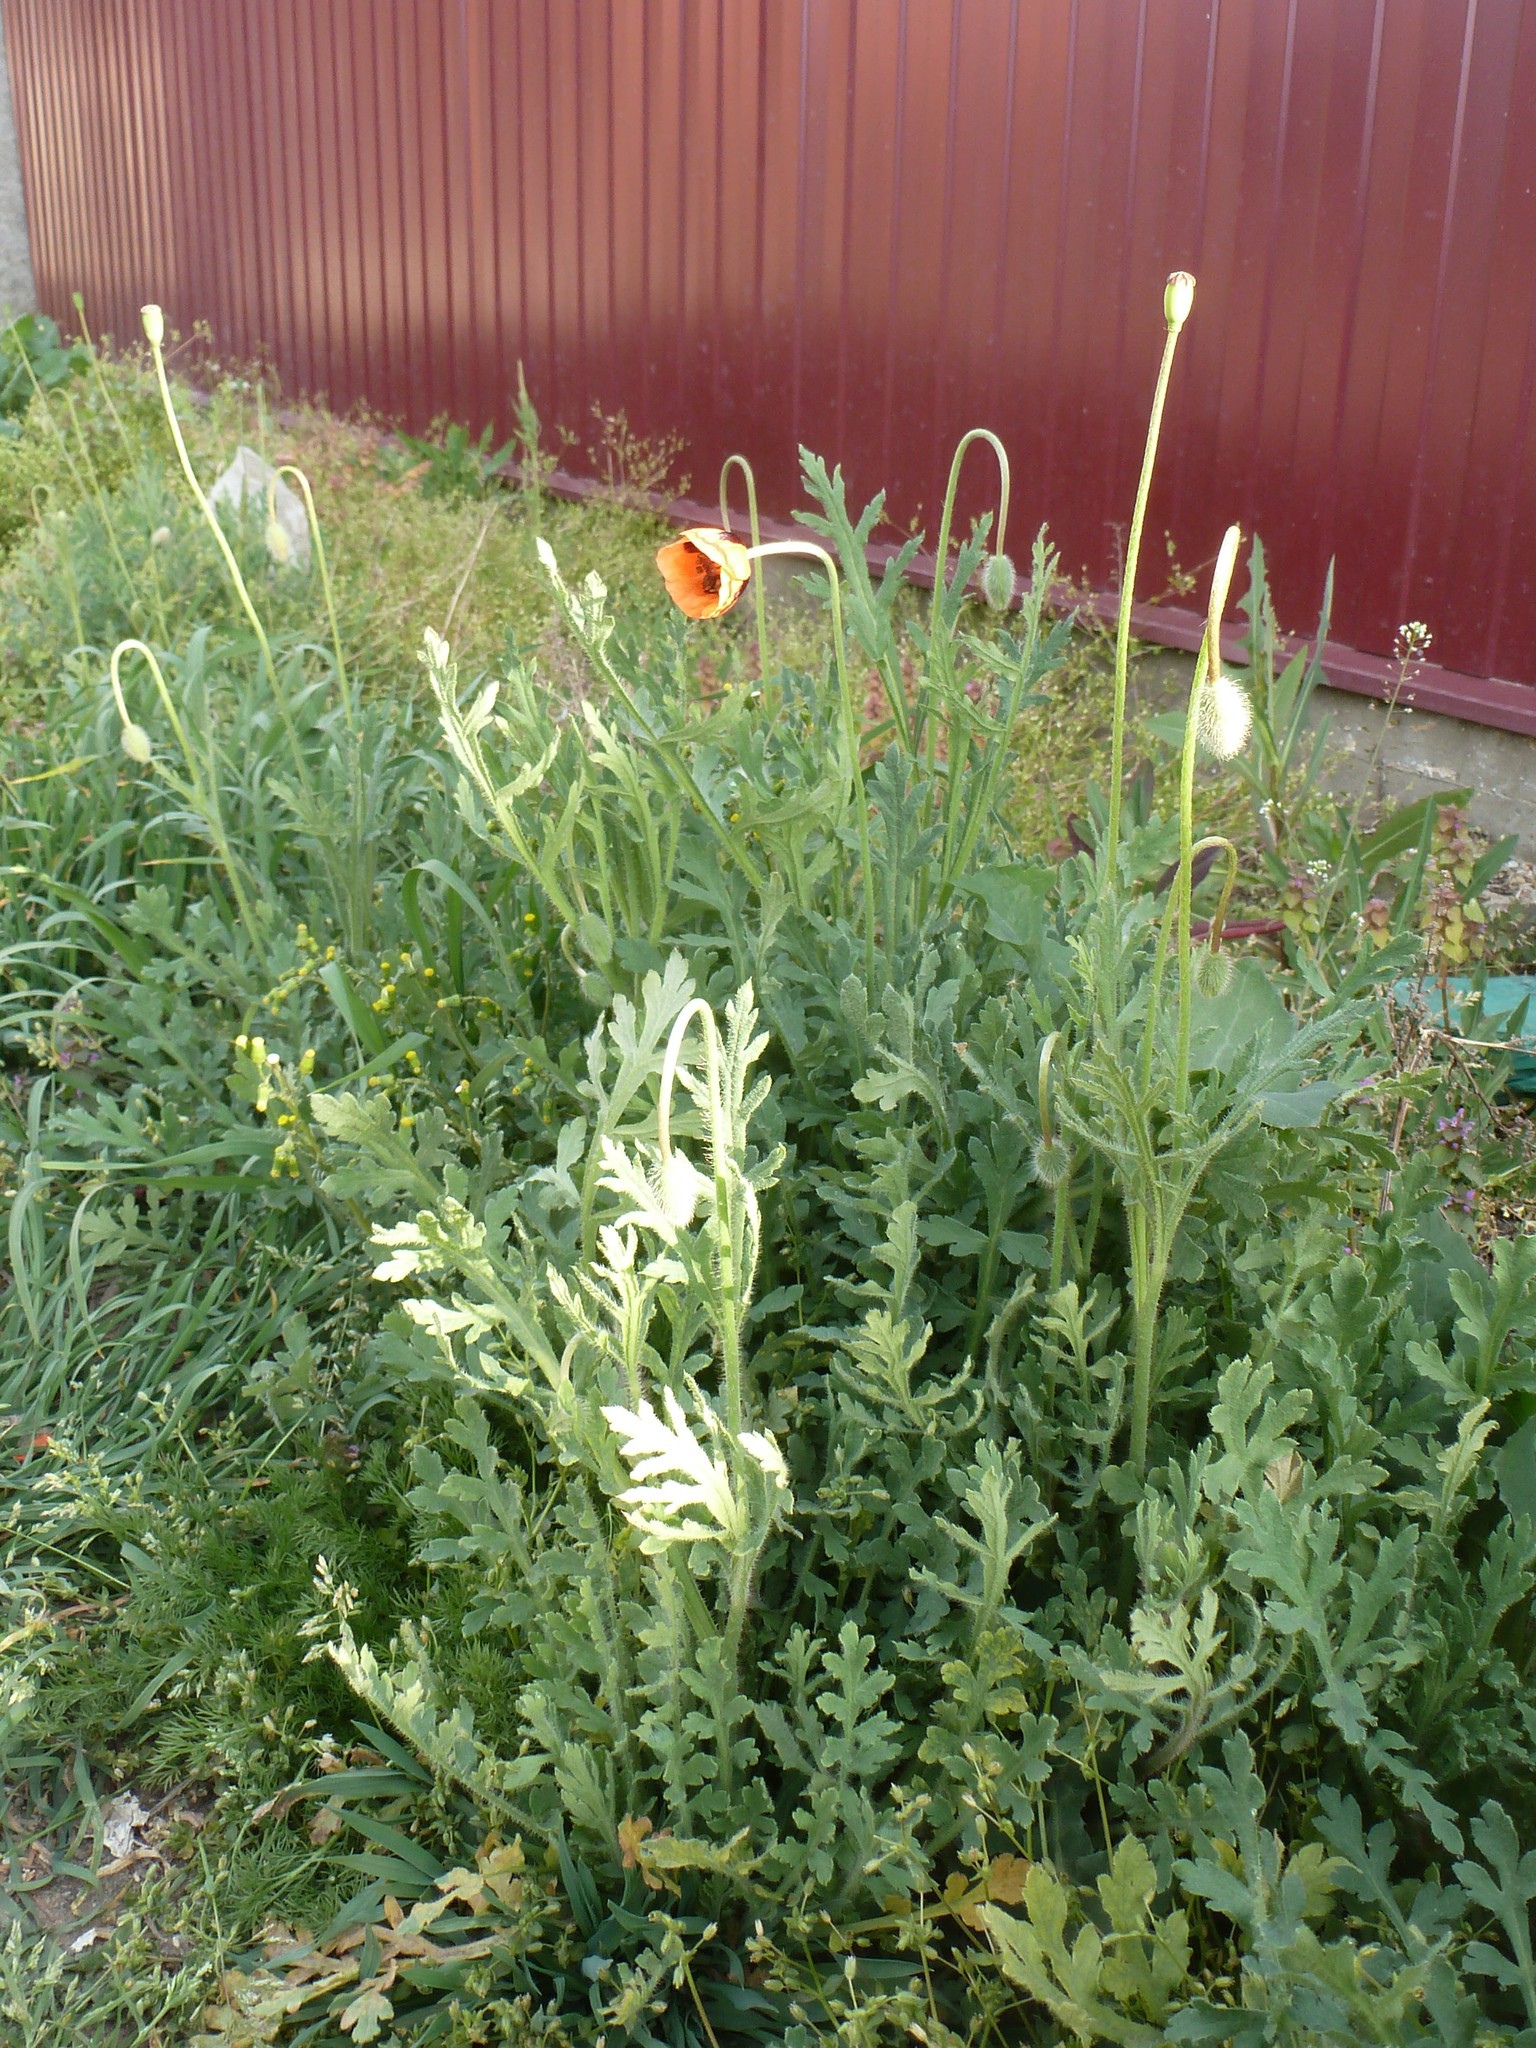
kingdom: Plantae
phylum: Tracheophyta
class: Magnoliopsida
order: Ranunculales
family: Papaveraceae
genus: Papaver
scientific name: Papaver dubium
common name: Long-headed poppy
